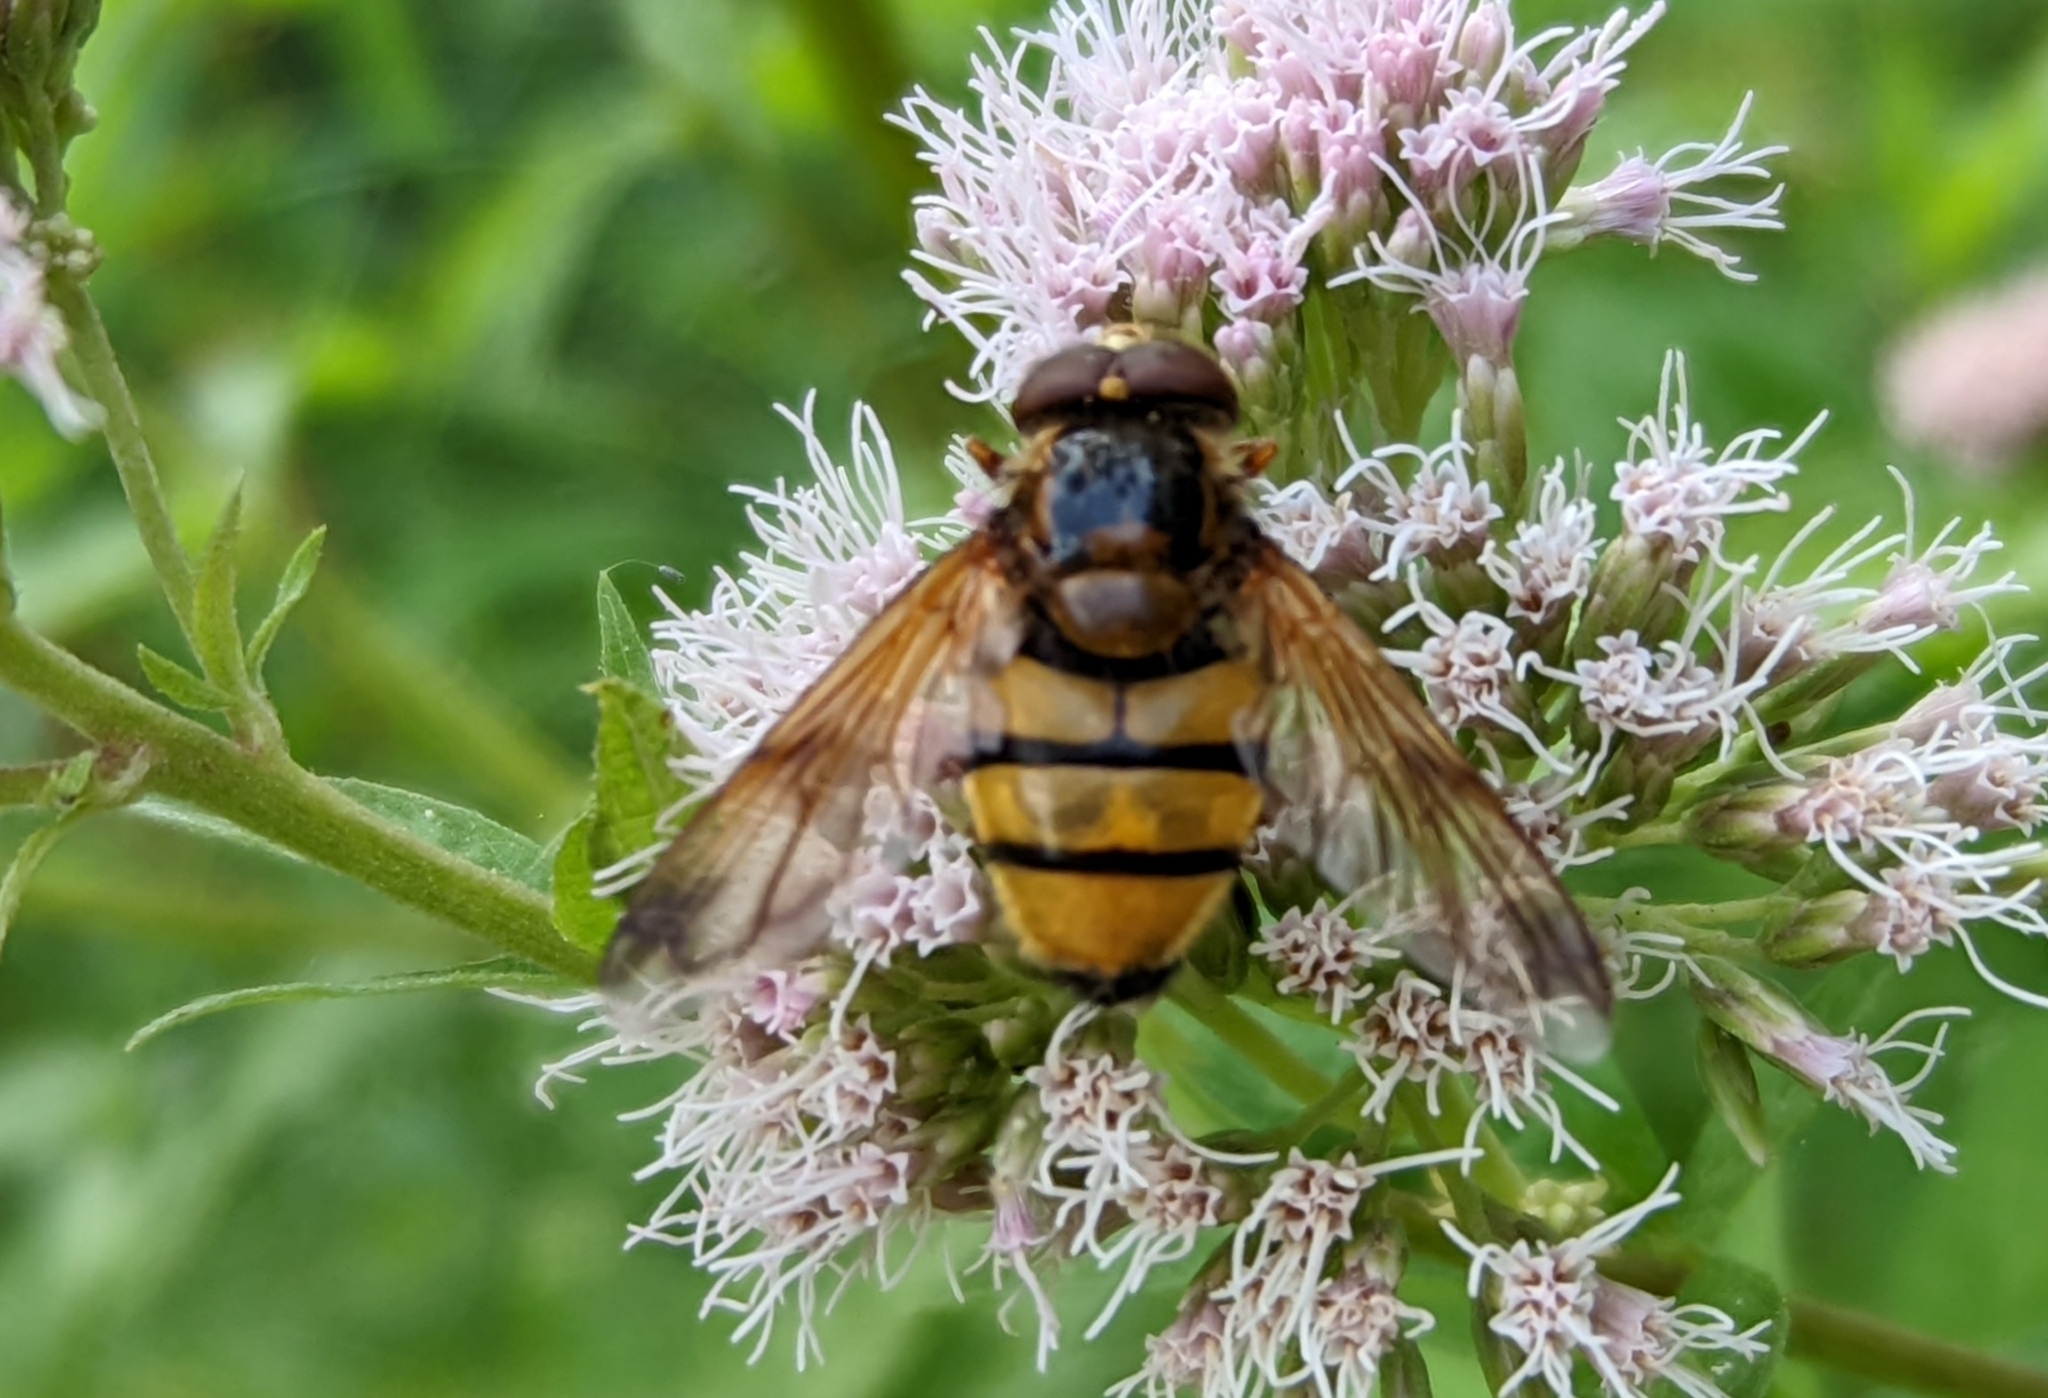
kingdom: Animalia
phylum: Arthropoda
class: Insecta
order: Diptera
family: Syrphidae
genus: Volucella
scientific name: Volucella inanis
